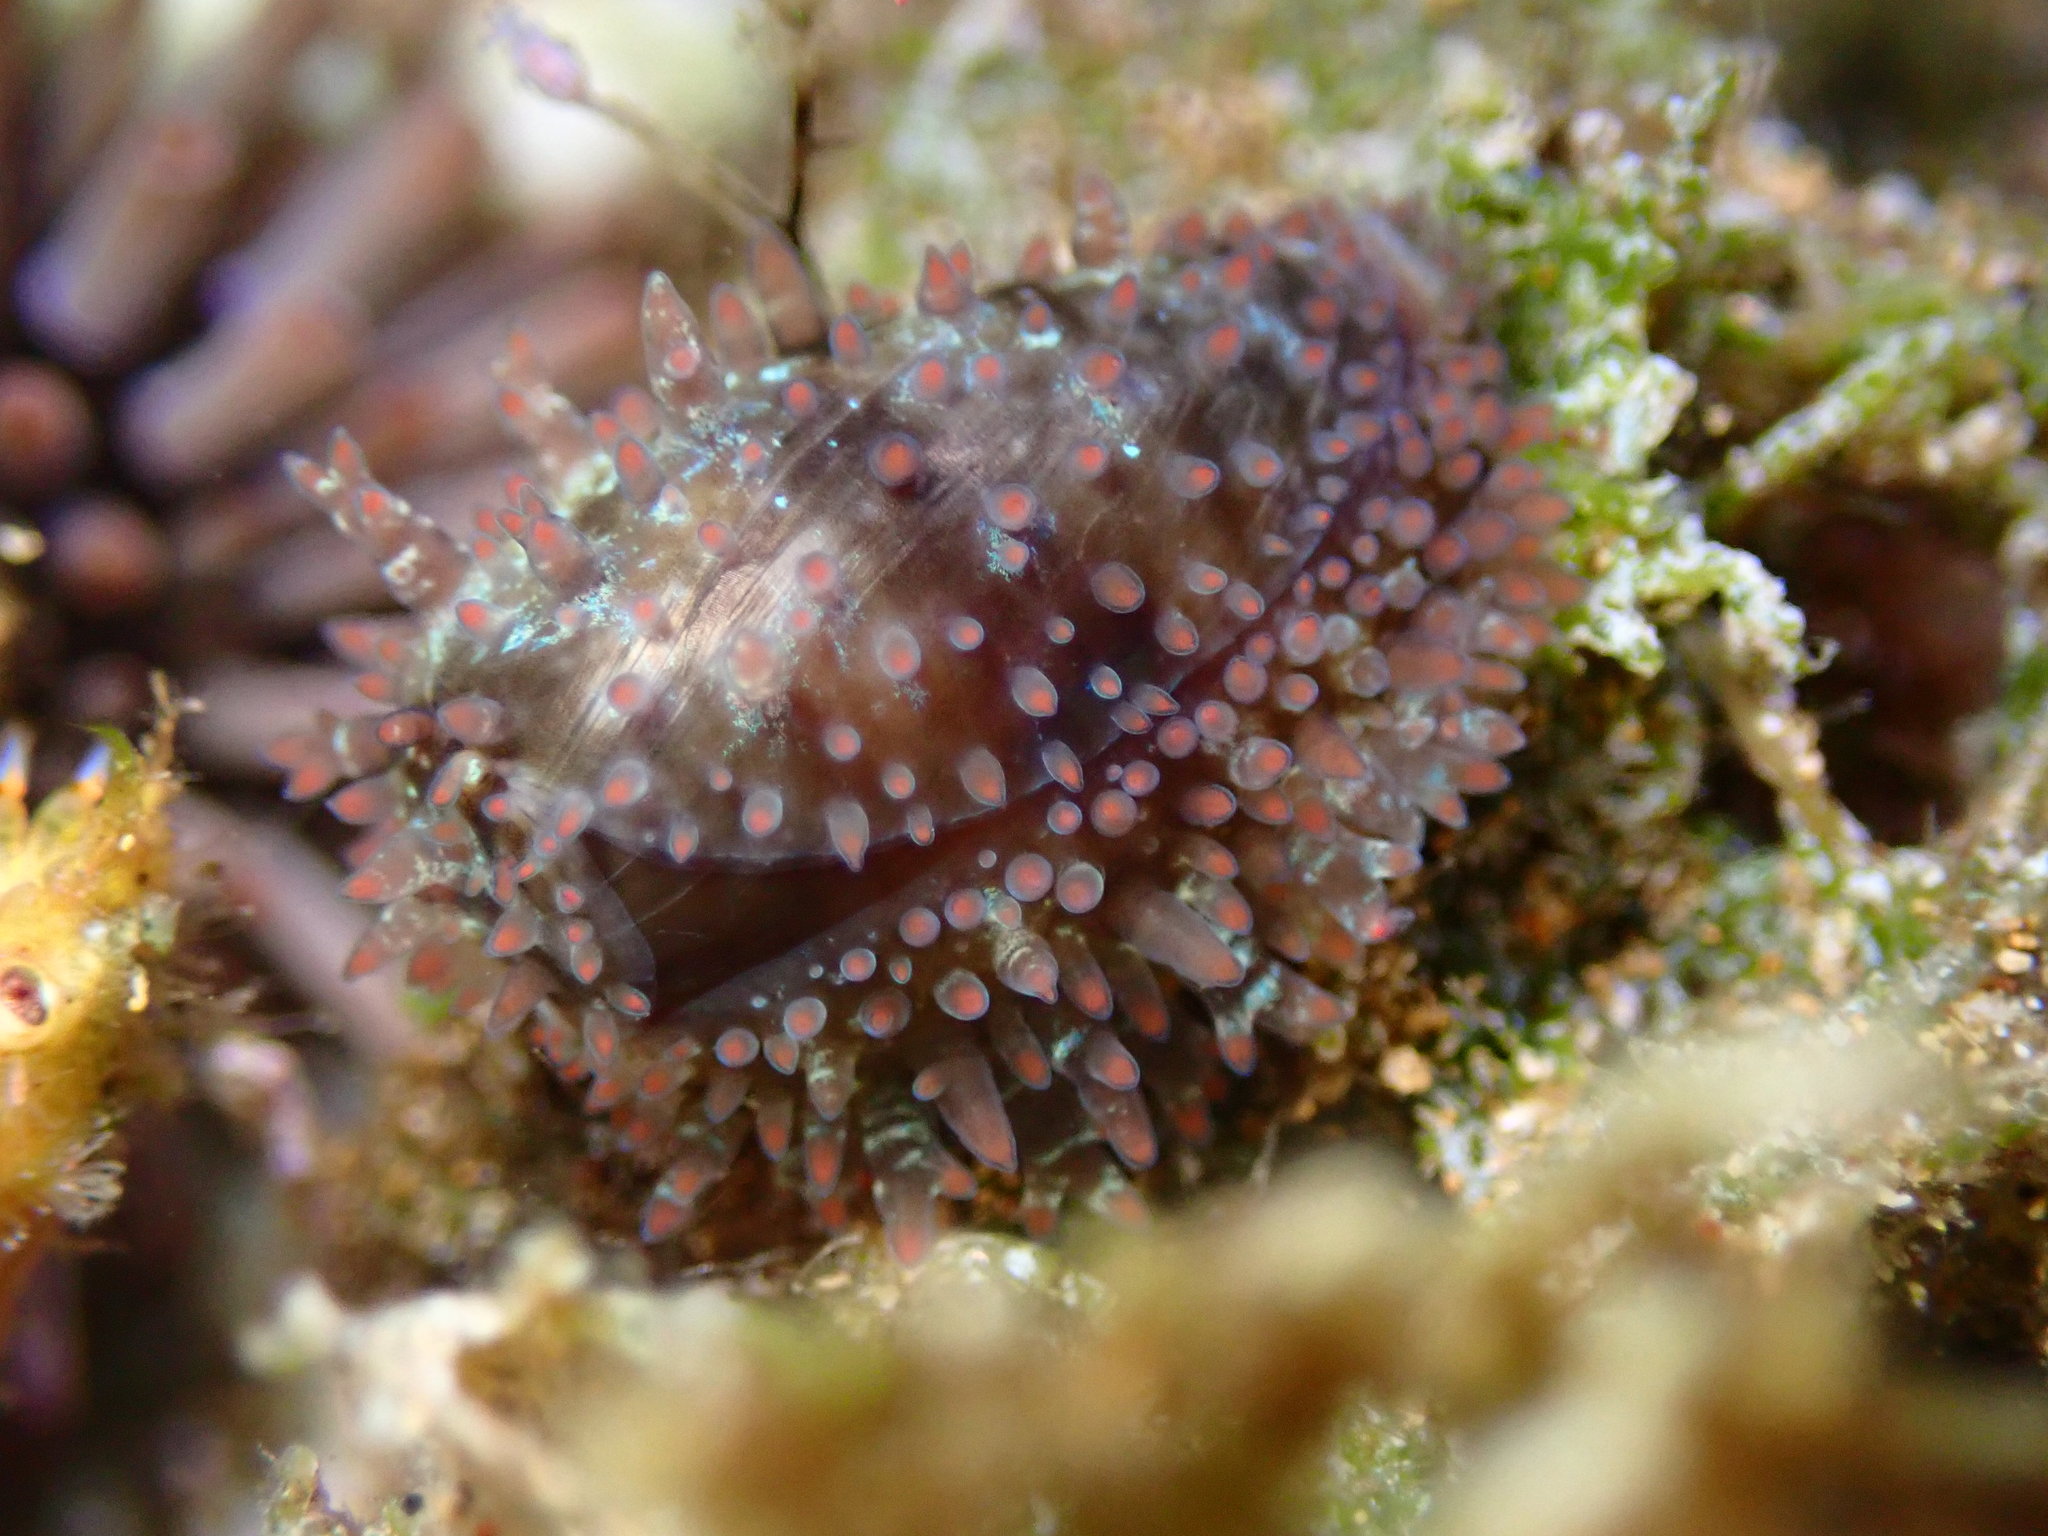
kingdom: Animalia
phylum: Mollusca
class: Gastropoda
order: Littorinimorpha
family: Cypraeidae
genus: Monetaria
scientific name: Monetaria caputophidii
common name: Snake's head cowry
